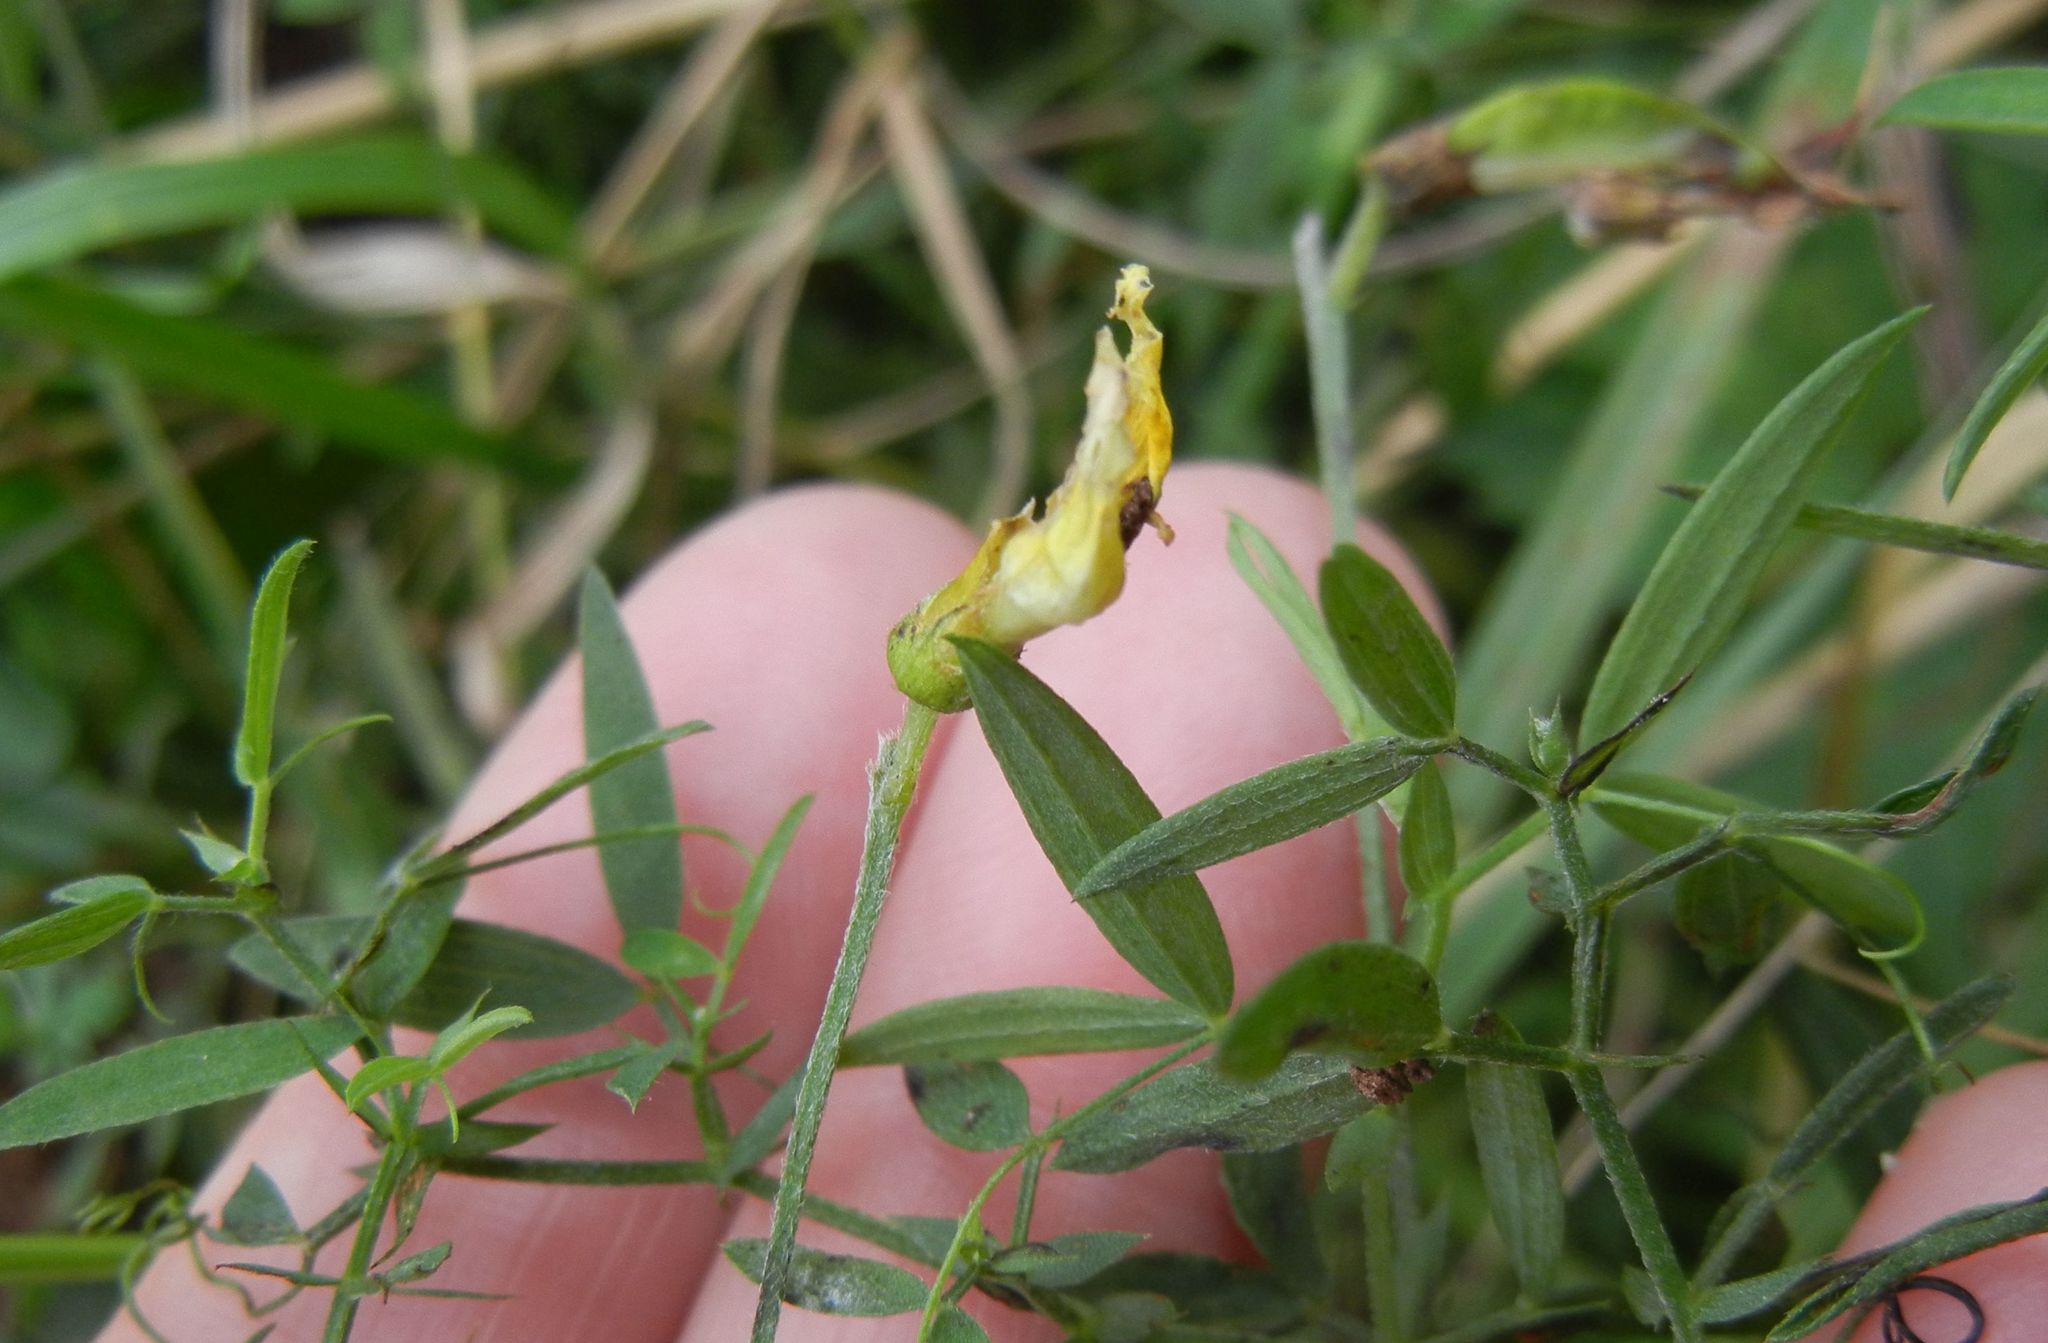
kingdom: Plantae
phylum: Tracheophyta
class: Magnoliopsida
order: Fabales
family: Fabaceae
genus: Lathyrus
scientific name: Lathyrus pratensis
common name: Meadow vetchling
